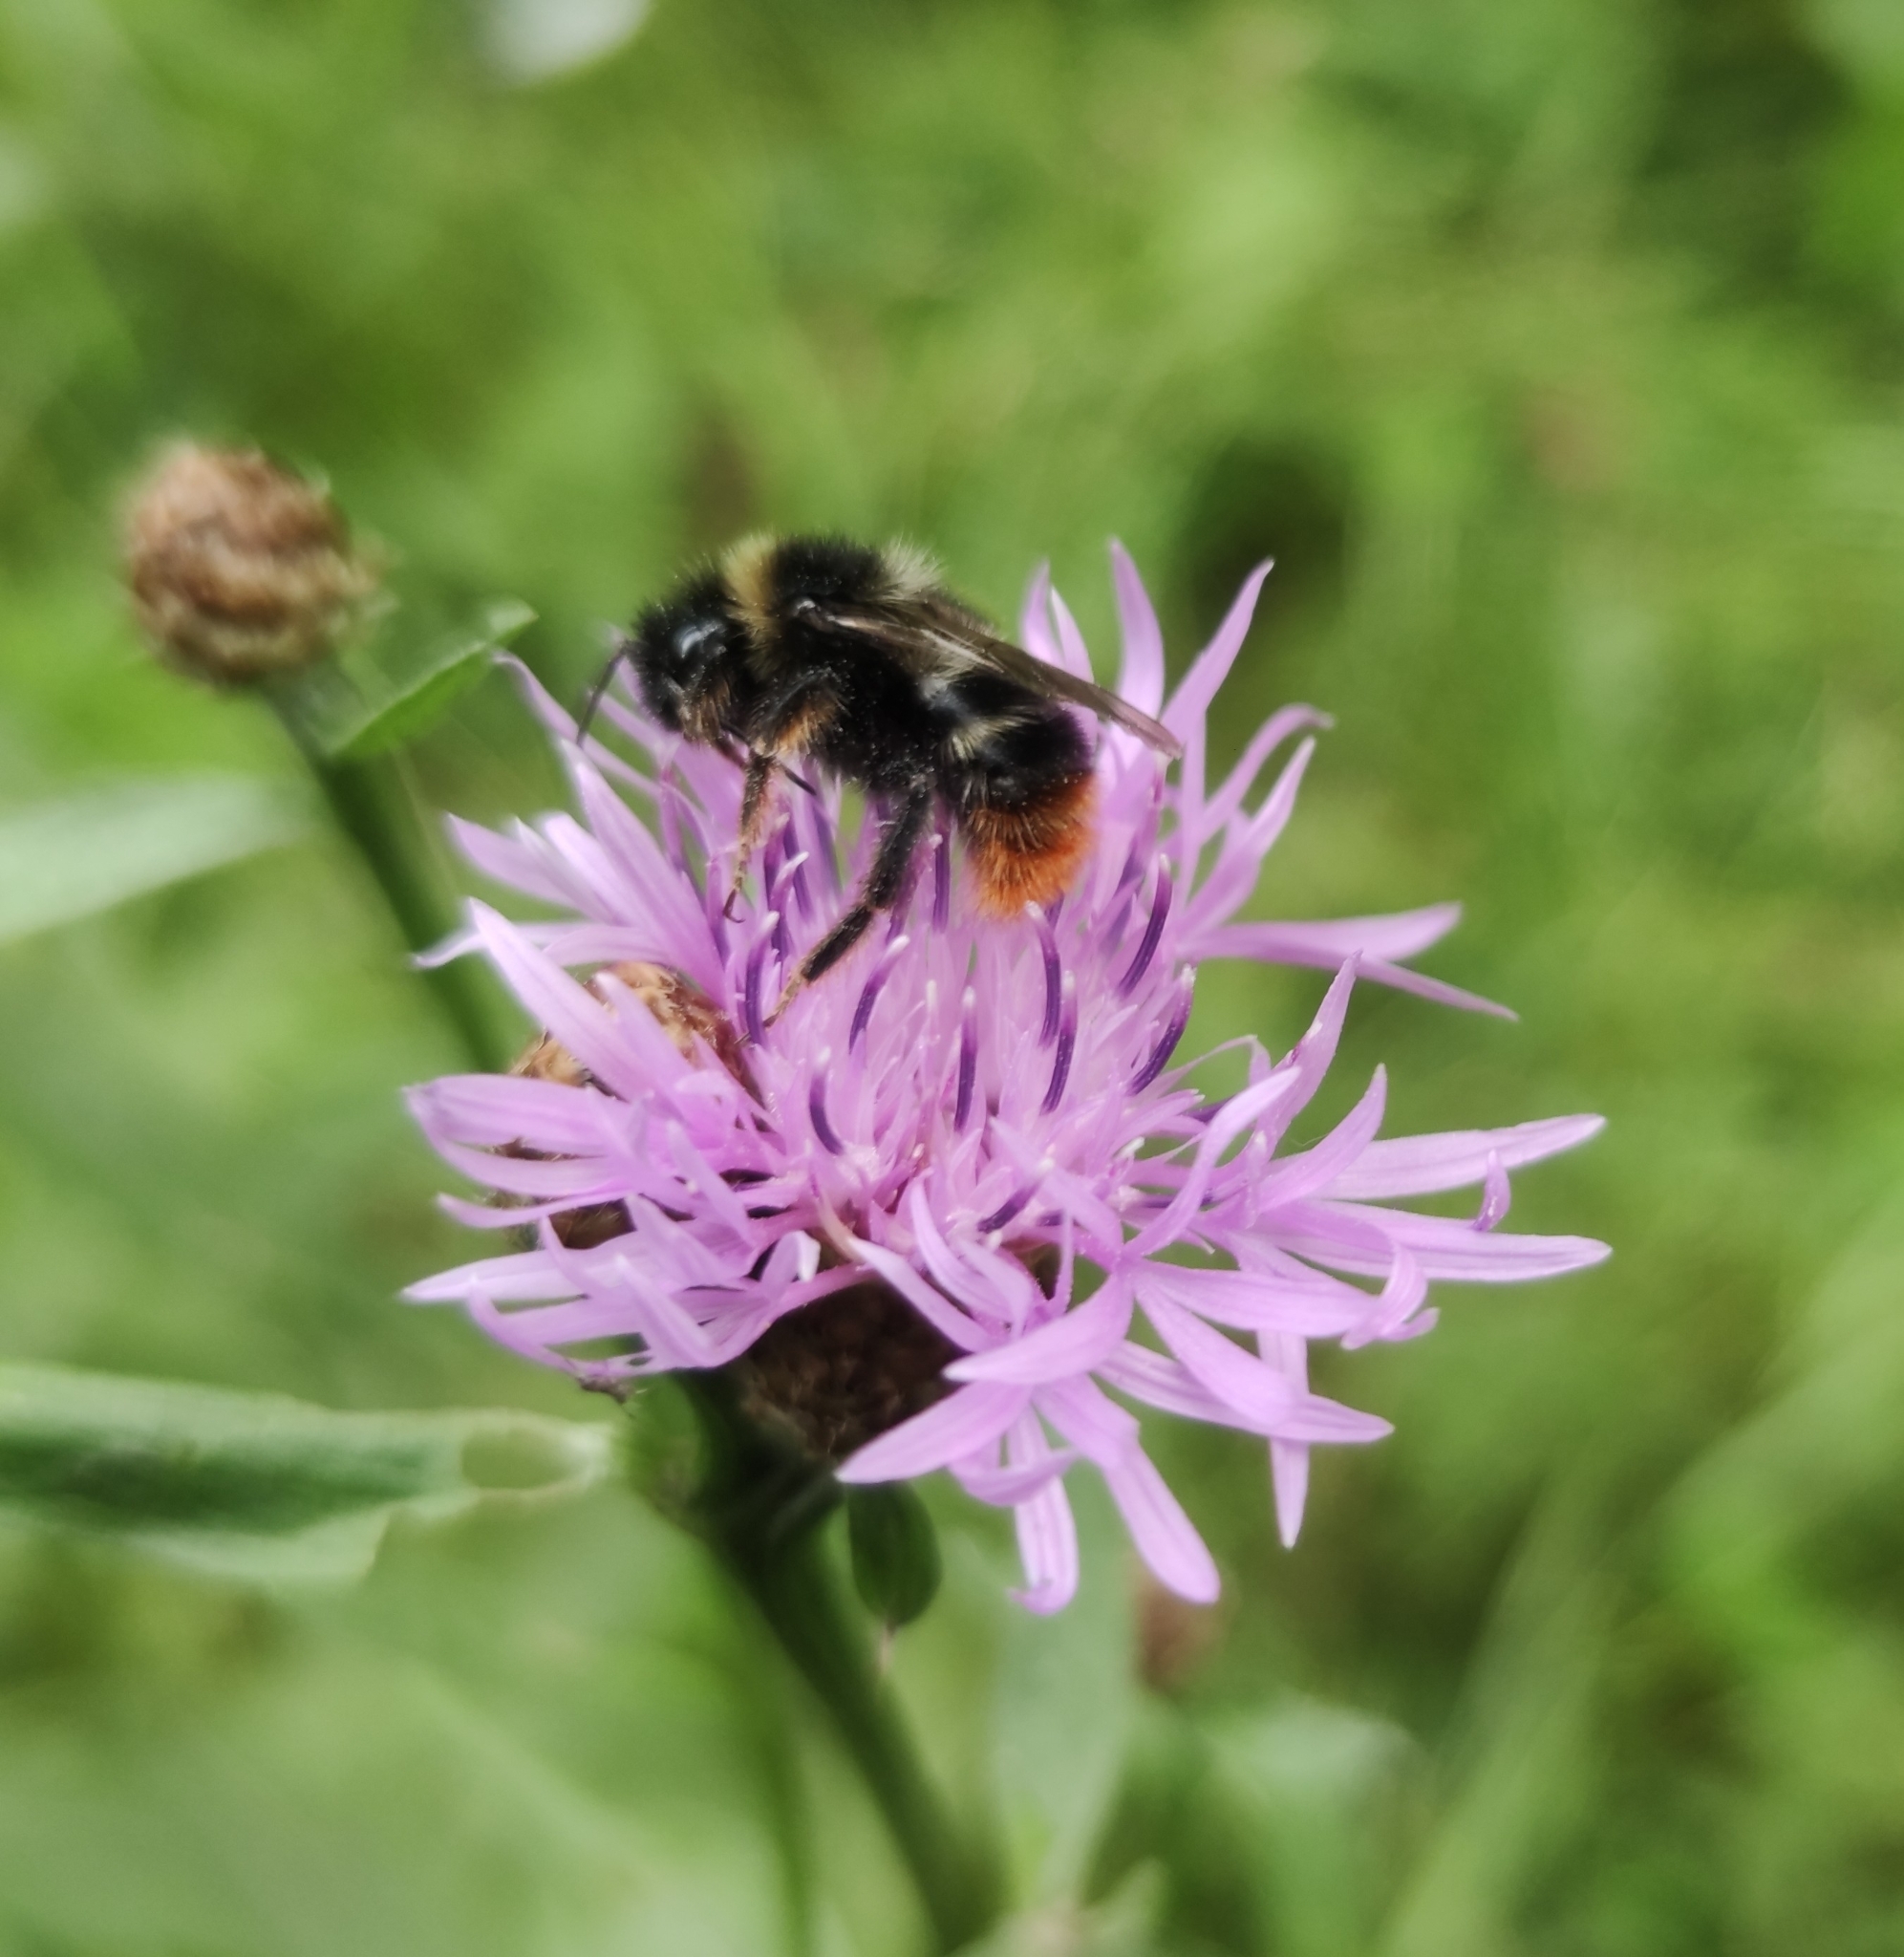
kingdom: Animalia
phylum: Arthropoda
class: Insecta
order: Hymenoptera
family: Apidae
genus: Bombus
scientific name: Bombus rupestris
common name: Hill cuckoo-bee
